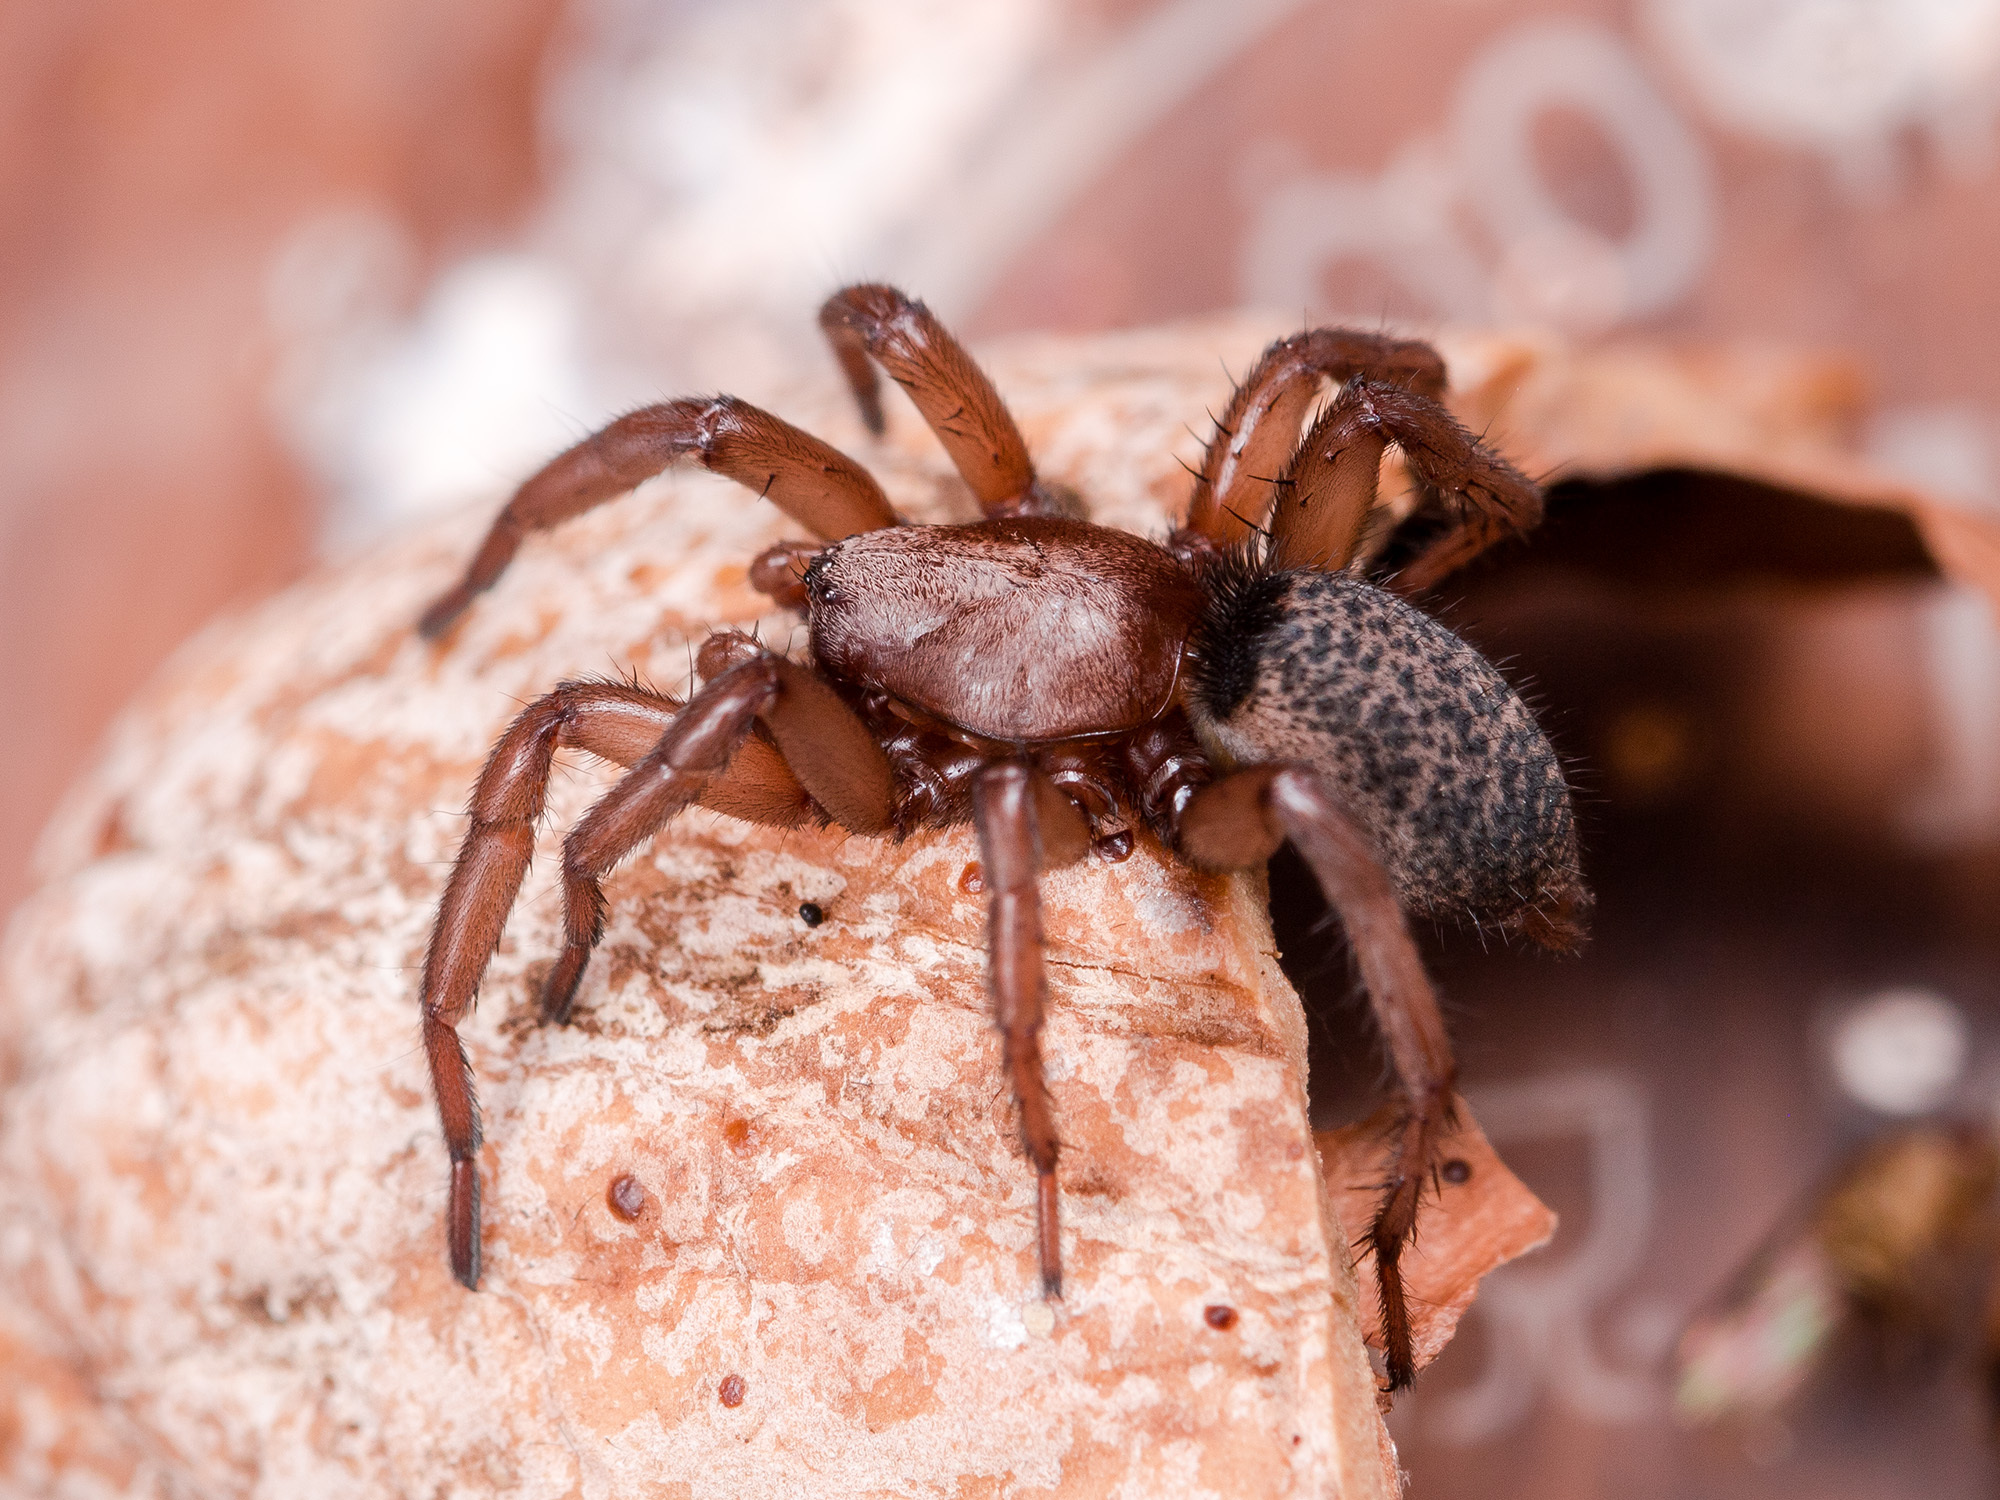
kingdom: Animalia
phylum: Arthropoda
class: Arachnida
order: Araneae
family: Gnaphosidae
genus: Gnaphosa
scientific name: Gnaphosa mongolica
